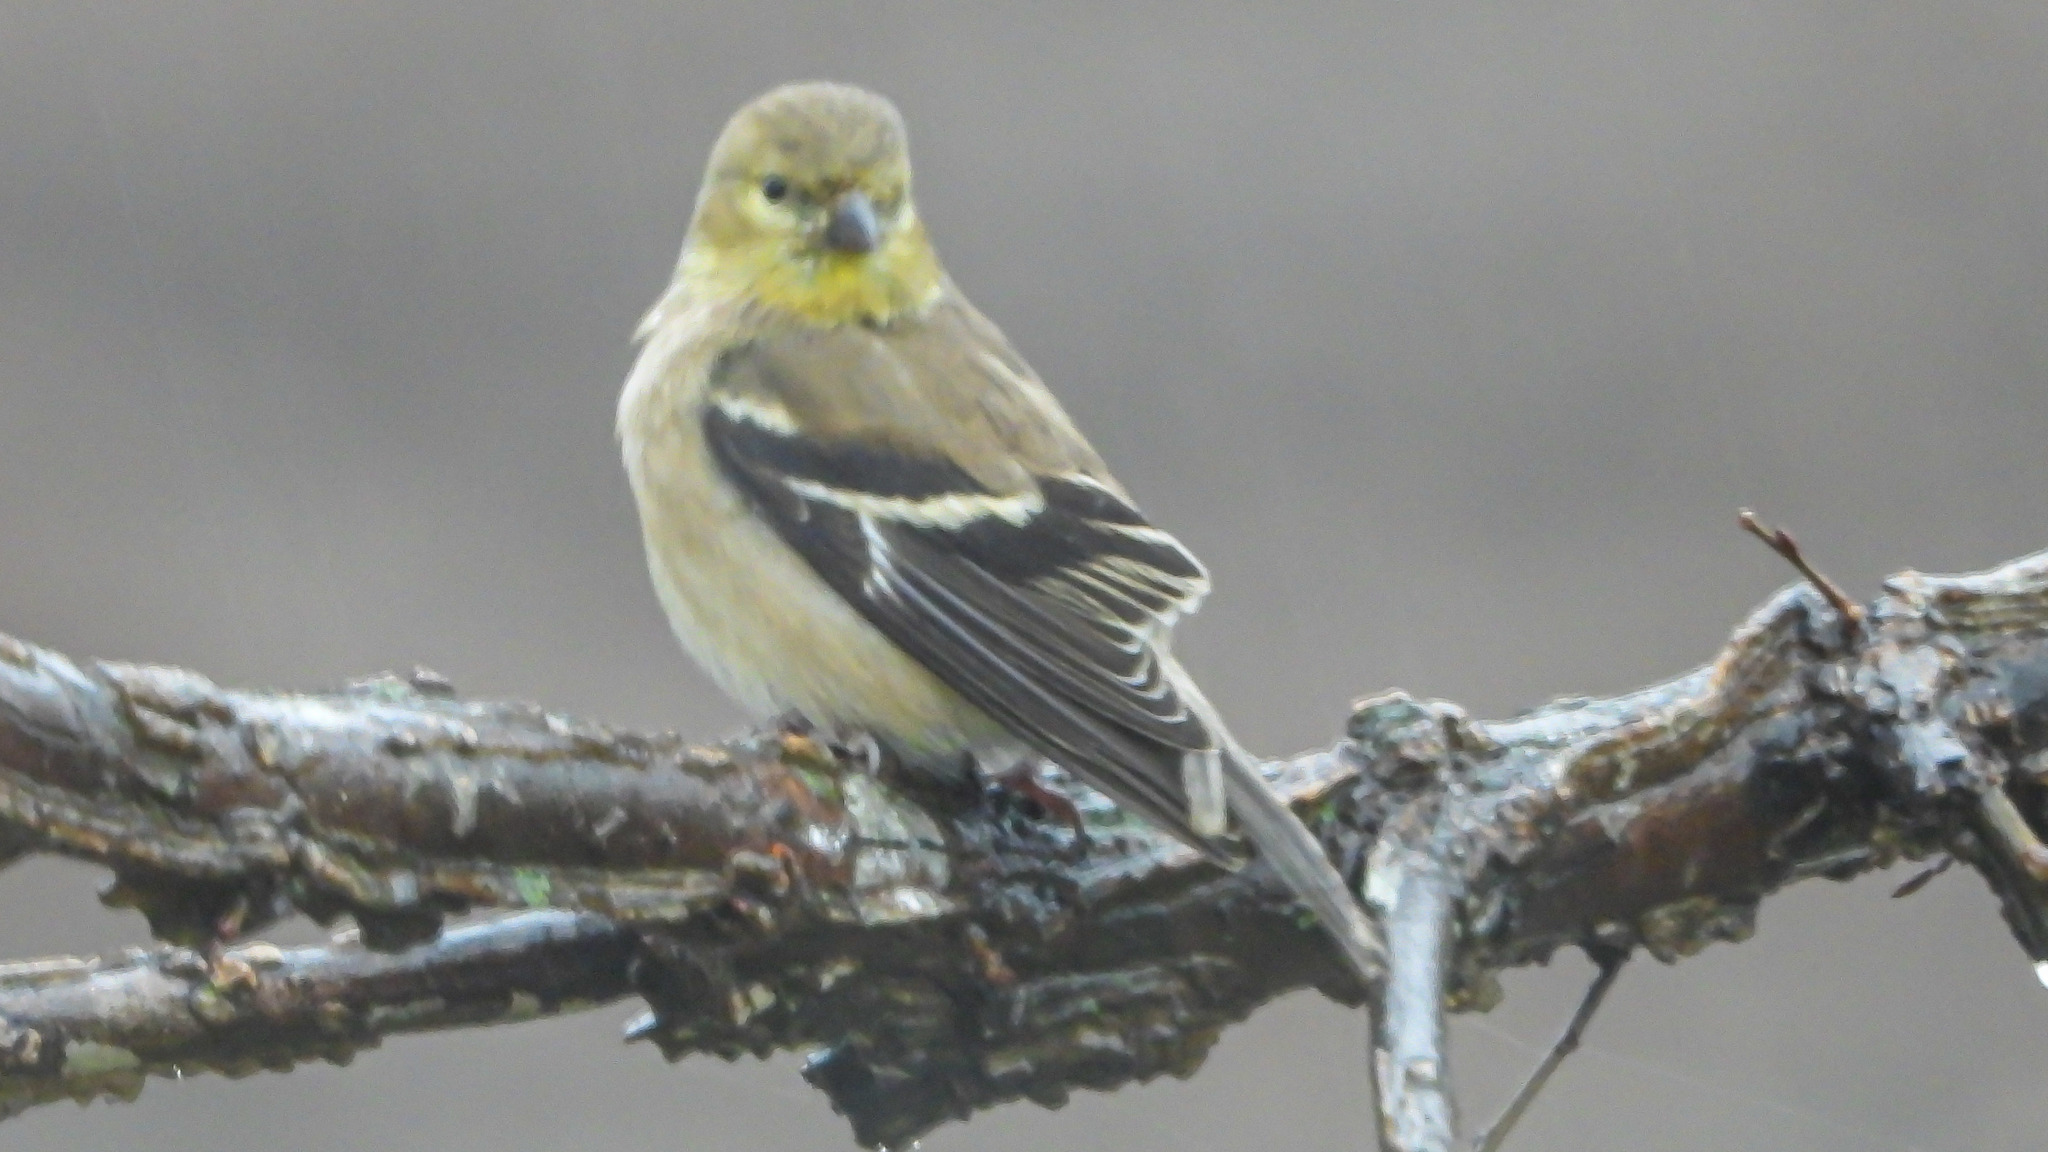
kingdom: Animalia
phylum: Chordata
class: Aves
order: Passeriformes
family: Fringillidae
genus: Spinus
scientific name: Spinus tristis
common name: American goldfinch
